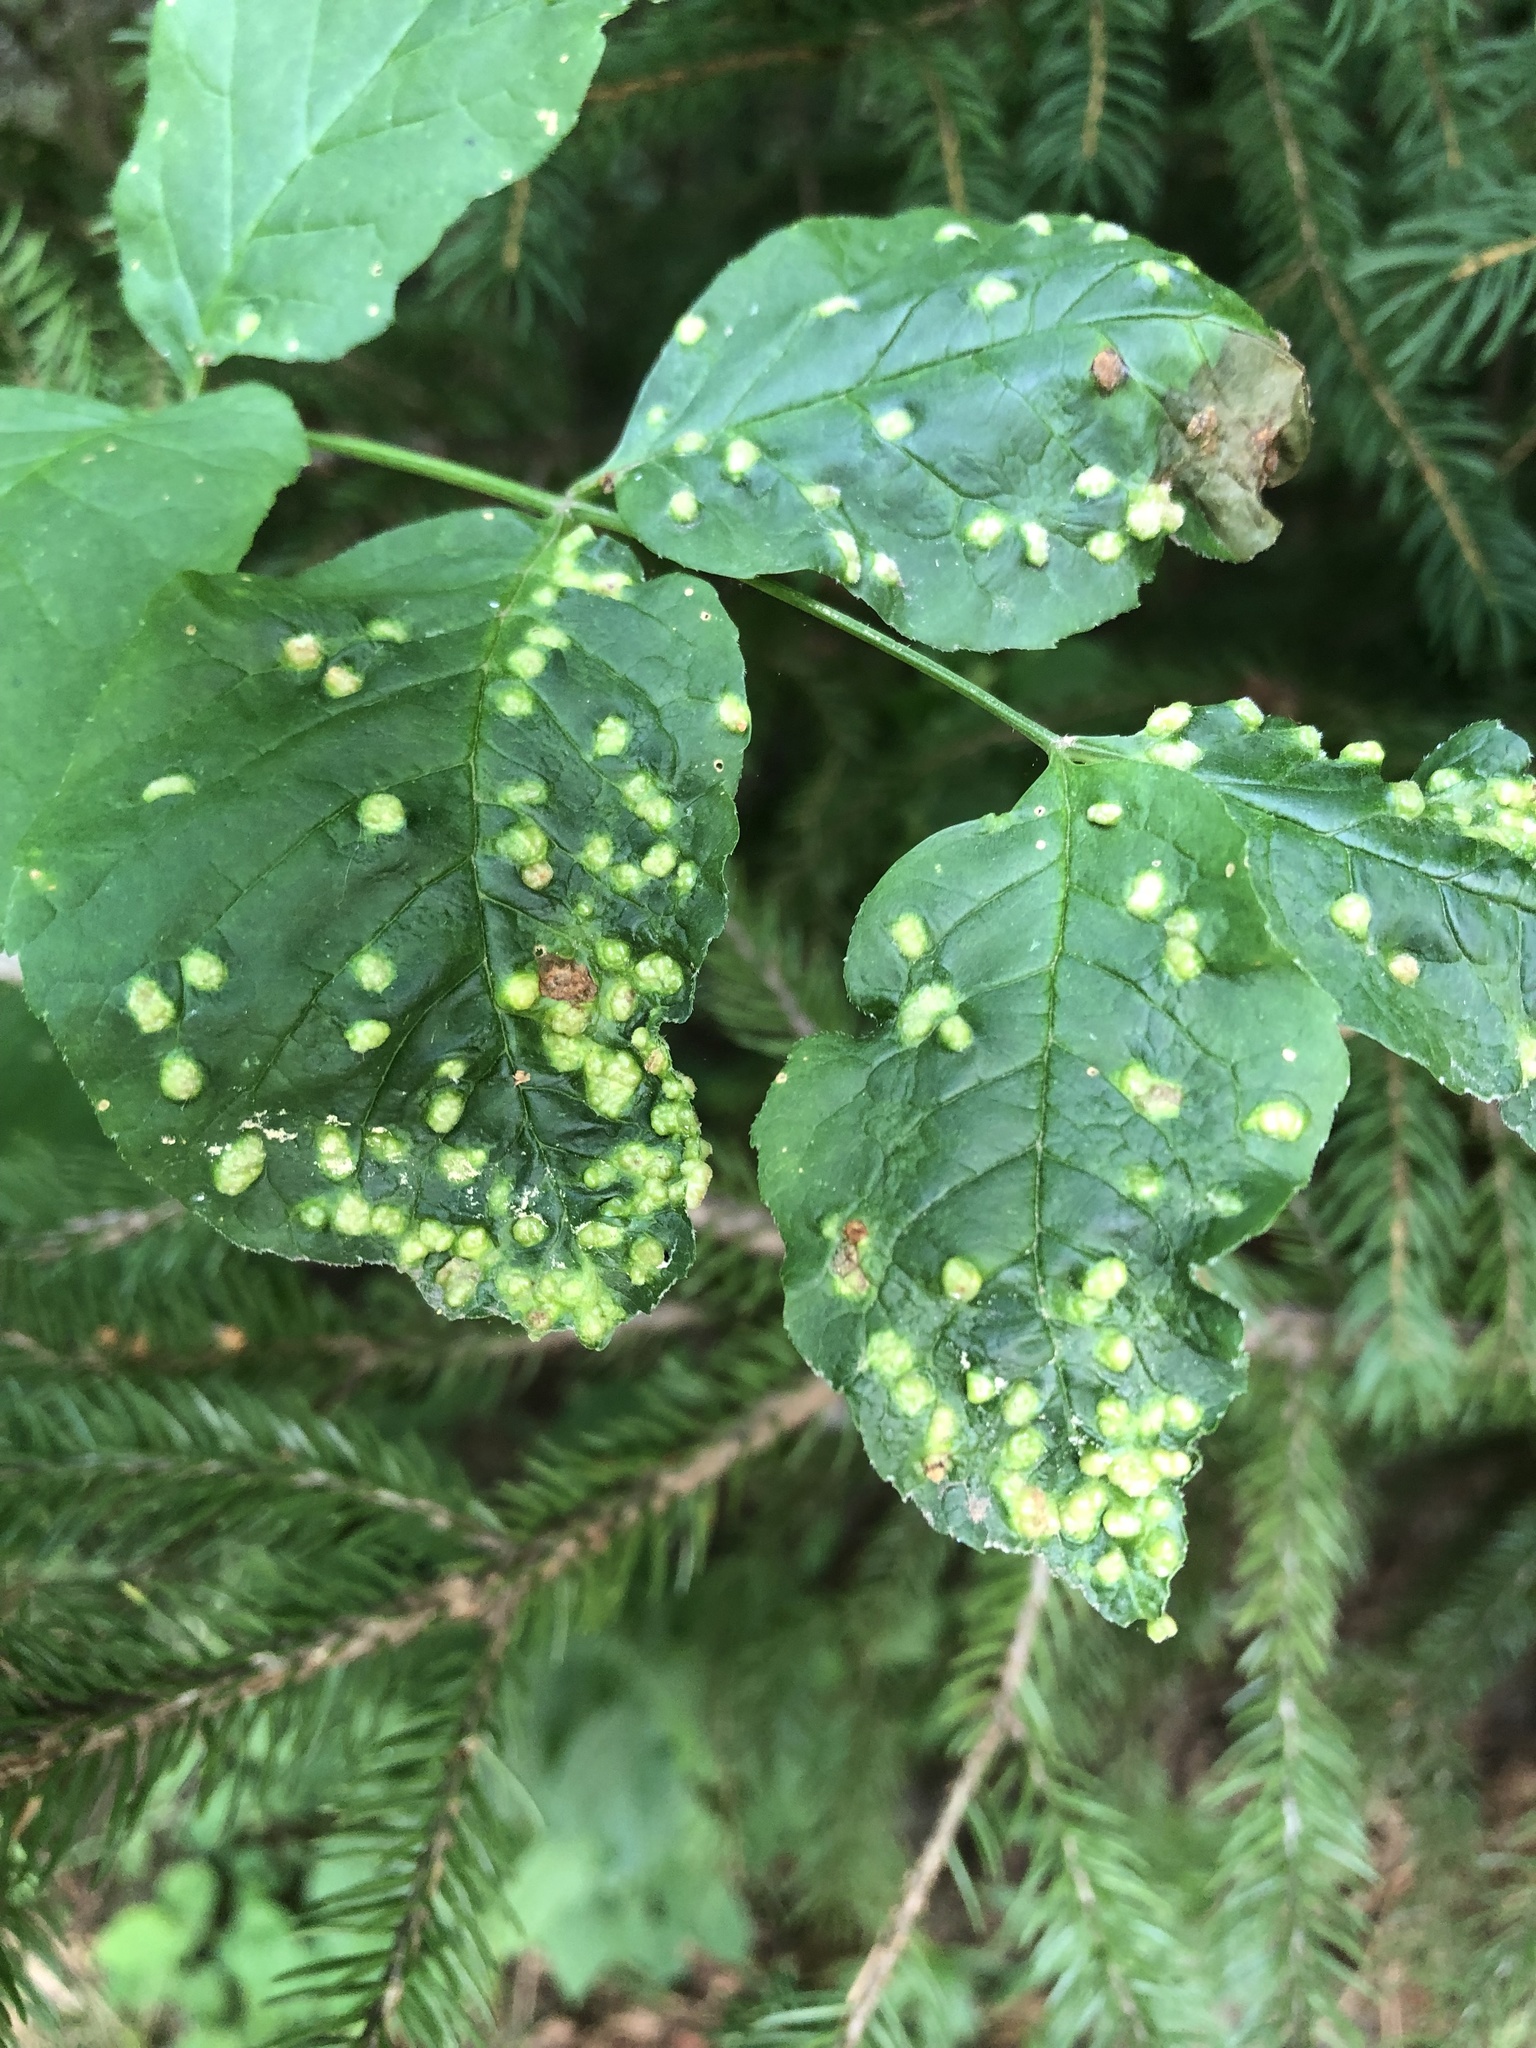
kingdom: Animalia
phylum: Arthropoda
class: Arachnida
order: Trombidiformes
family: Eriophyidae
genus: Aceria
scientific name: Aceria fraxinicola
